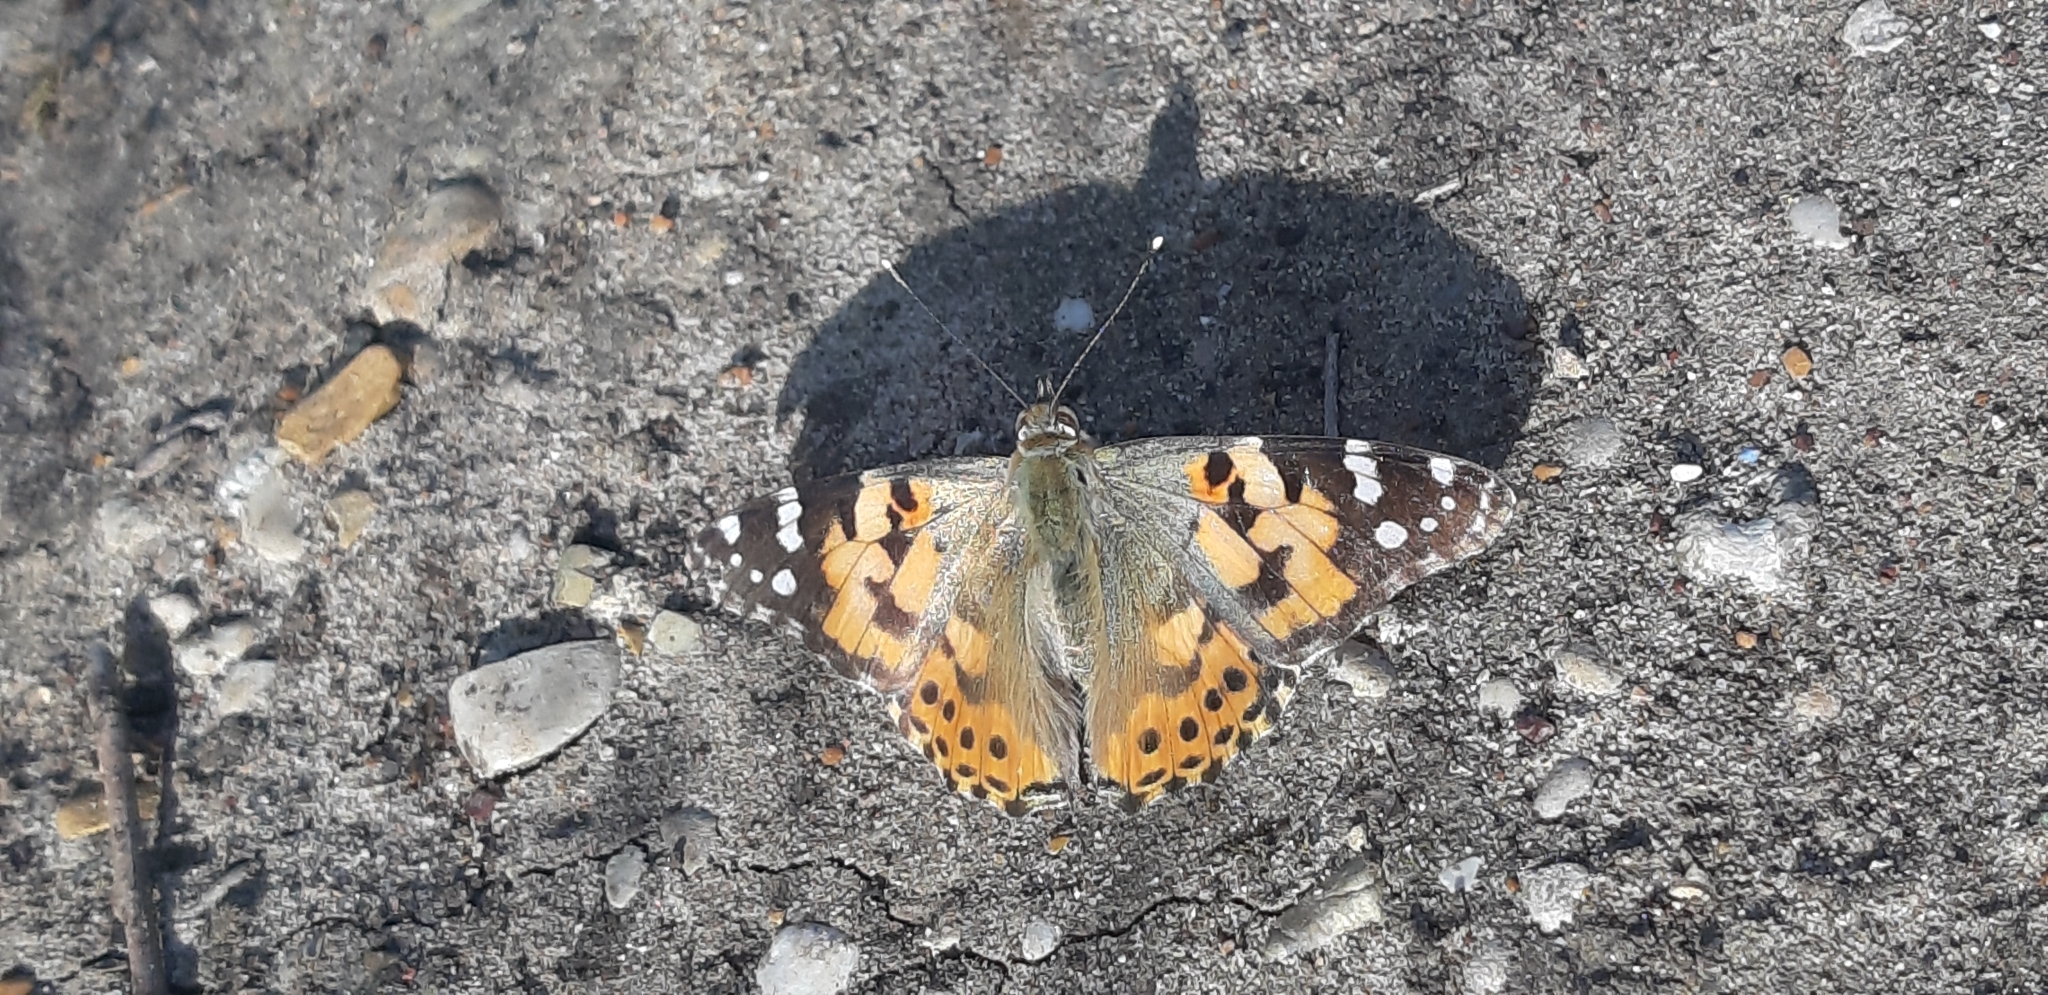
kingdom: Animalia
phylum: Arthropoda
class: Insecta
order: Lepidoptera
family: Nymphalidae
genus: Vanessa
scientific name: Vanessa cardui
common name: Painted lady
